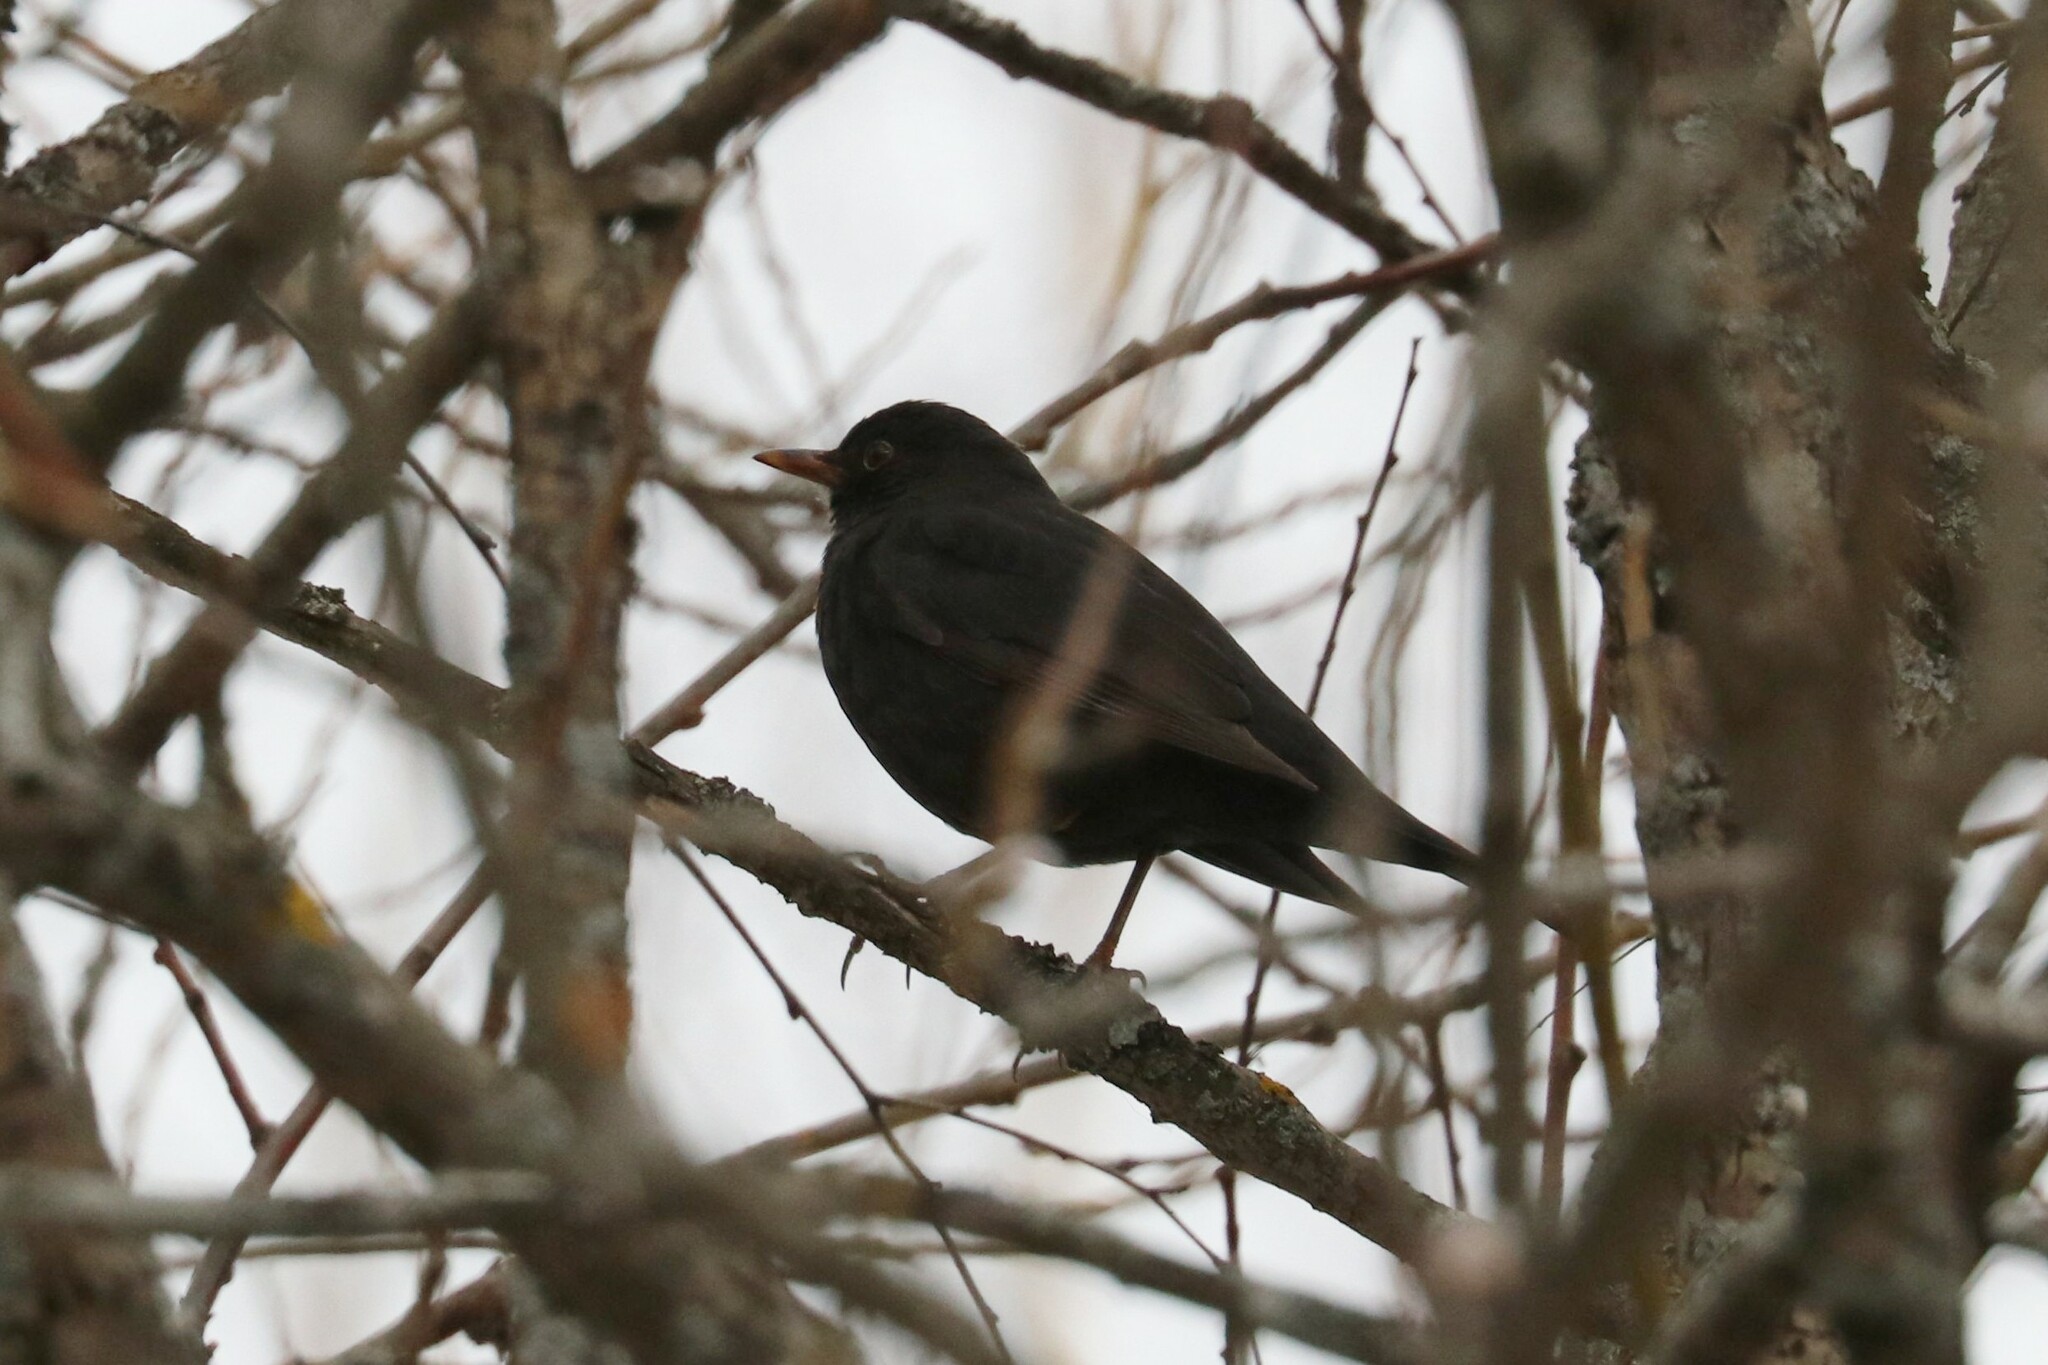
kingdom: Animalia
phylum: Chordata
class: Aves
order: Passeriformes
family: Turdidae
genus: Turdus
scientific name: Turdus merula
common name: Common blackbird
